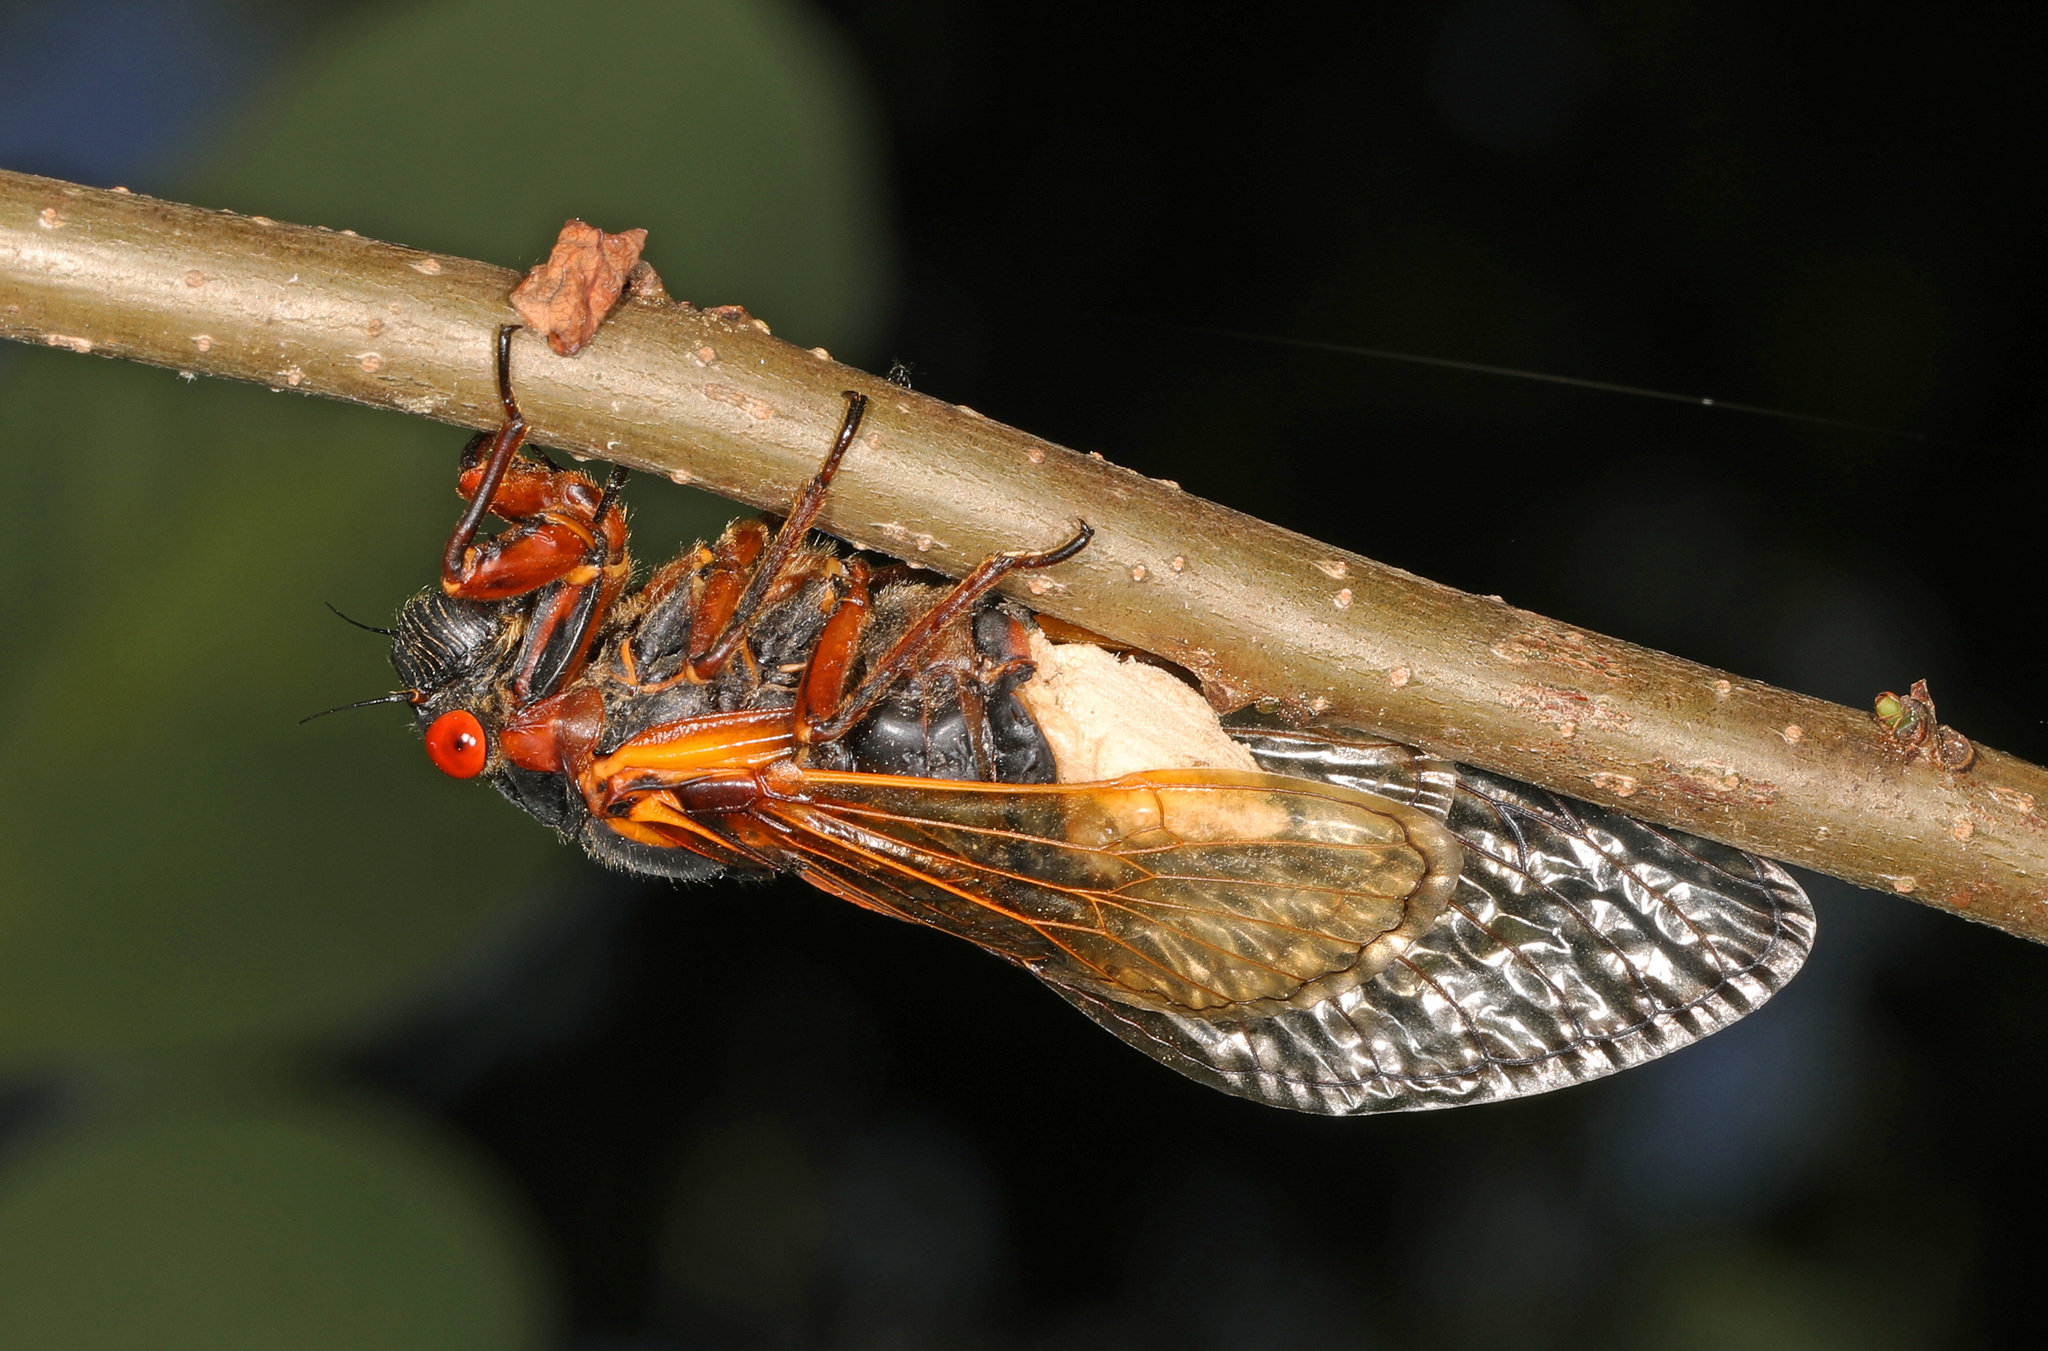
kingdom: Fungi
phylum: Entomophthoromycota
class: Entomophthoromycetes
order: Entomophthorales
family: Entomophthoraceae
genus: Massospora
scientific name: Massospora cicadina
